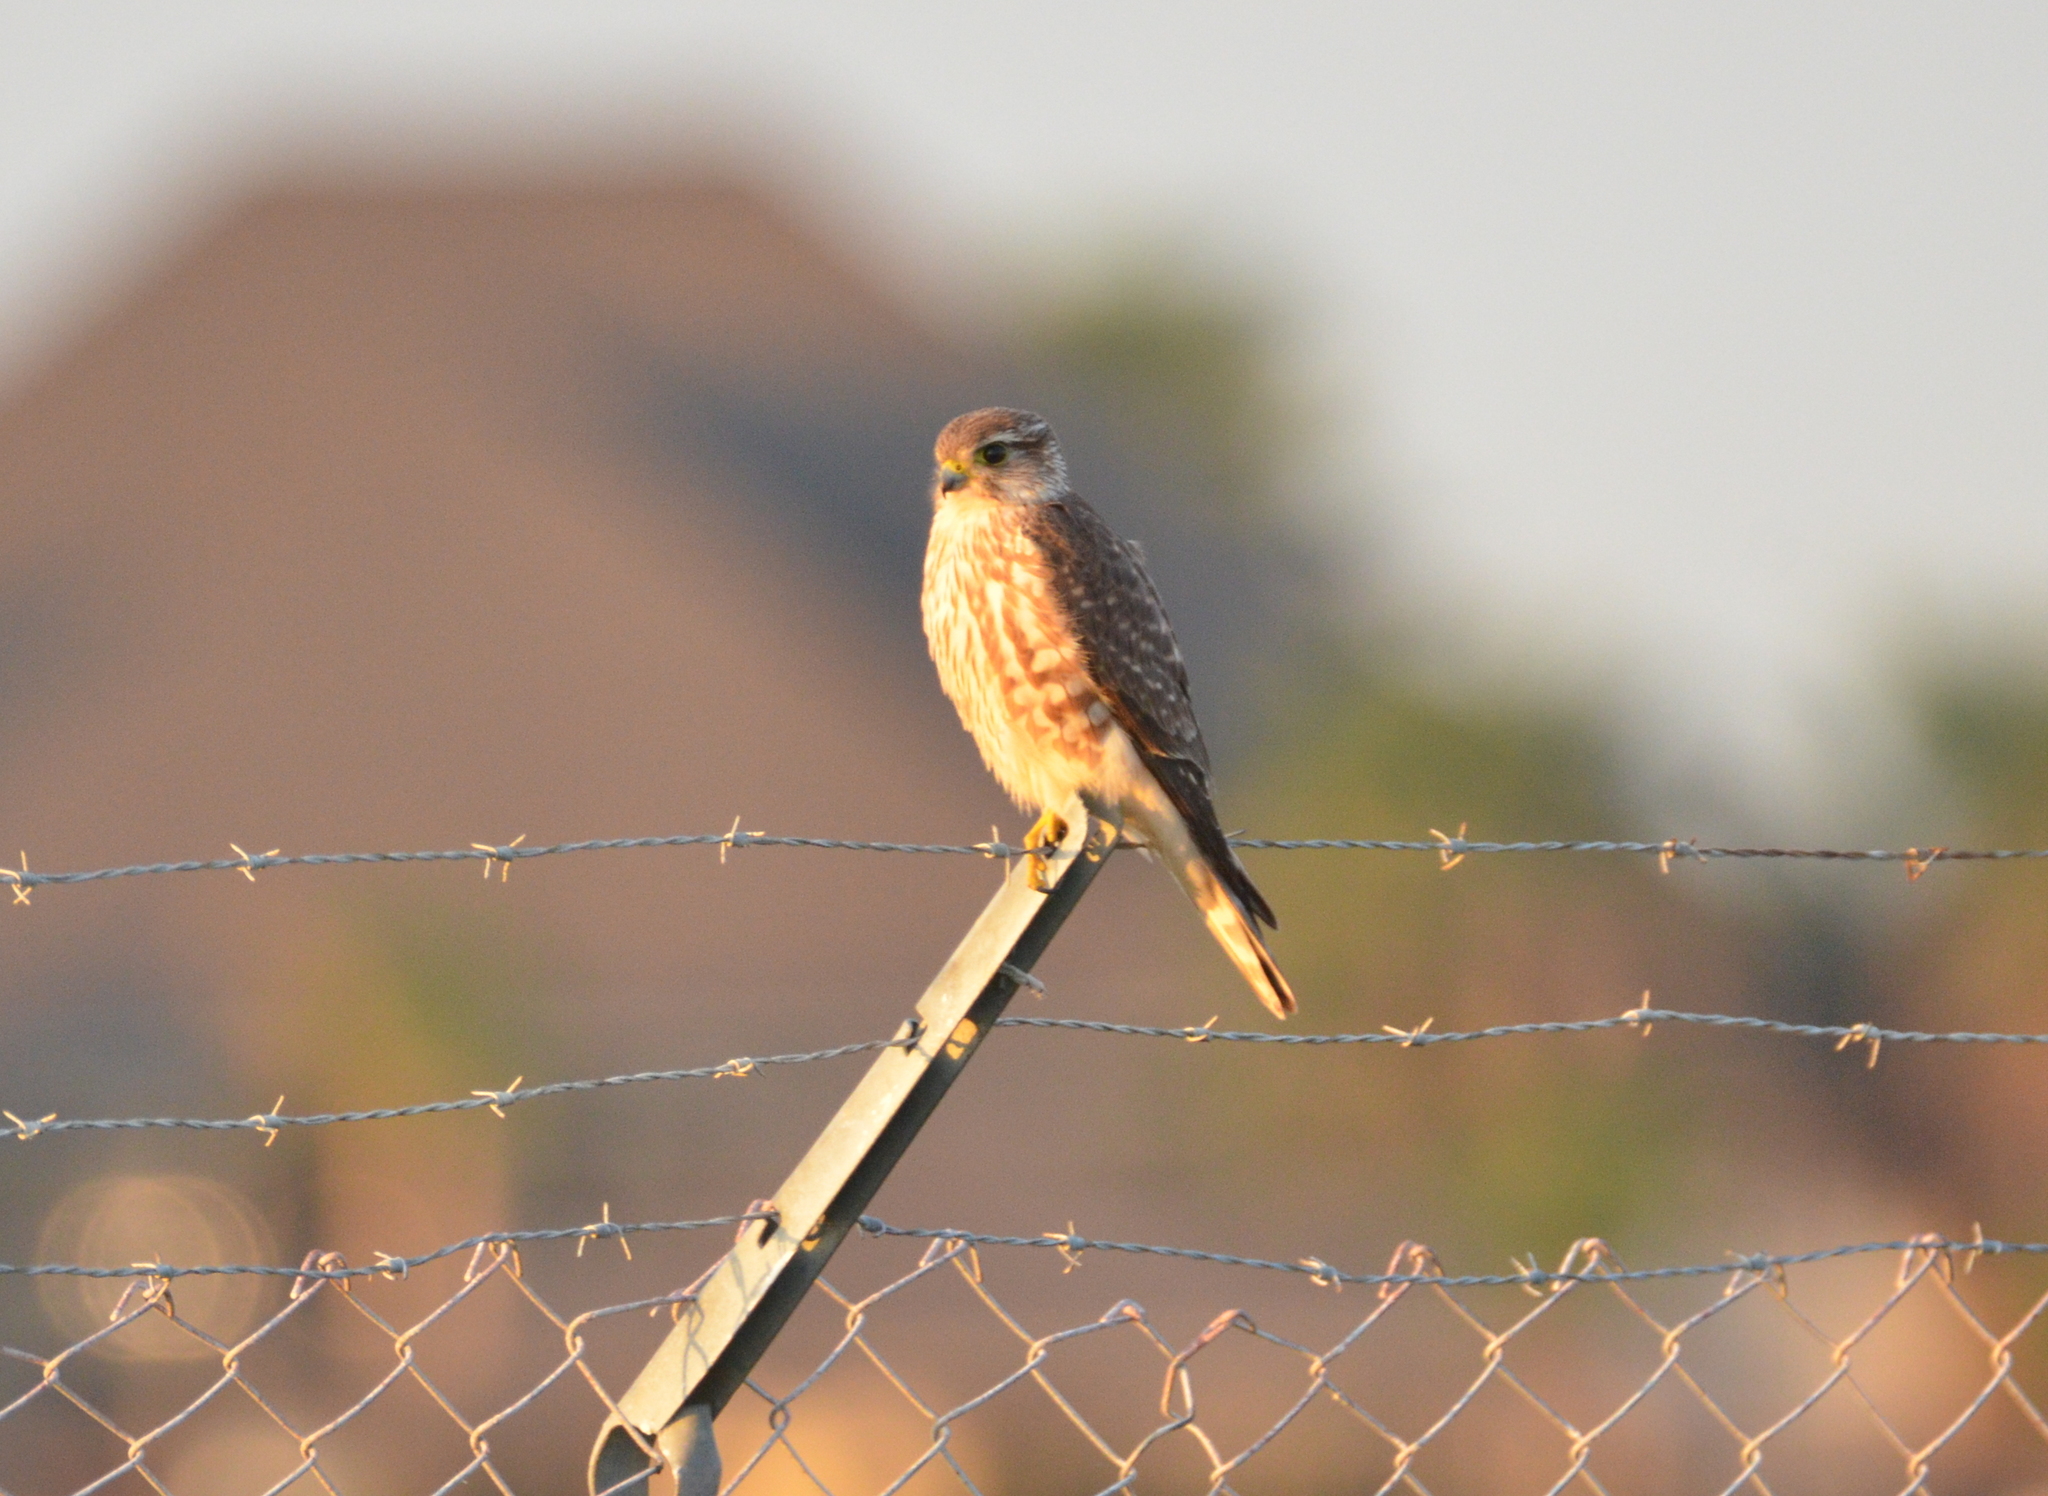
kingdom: Animalia
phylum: Chordata
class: Aves
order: Falconiformes
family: Falconidae
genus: Falco
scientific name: Falco columbarius
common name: Merlin
